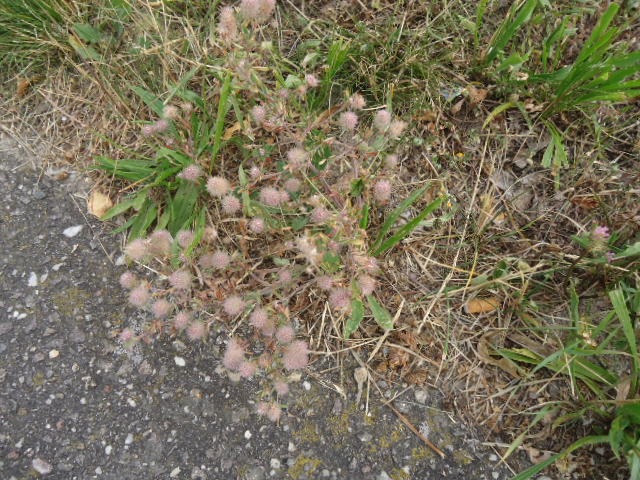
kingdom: Plantae
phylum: Tracheophyta
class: Magnoliopsida
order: Fabales
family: Fabaceae
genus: Trifolium
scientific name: Trifolium arvense
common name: Hare's-foot clover
